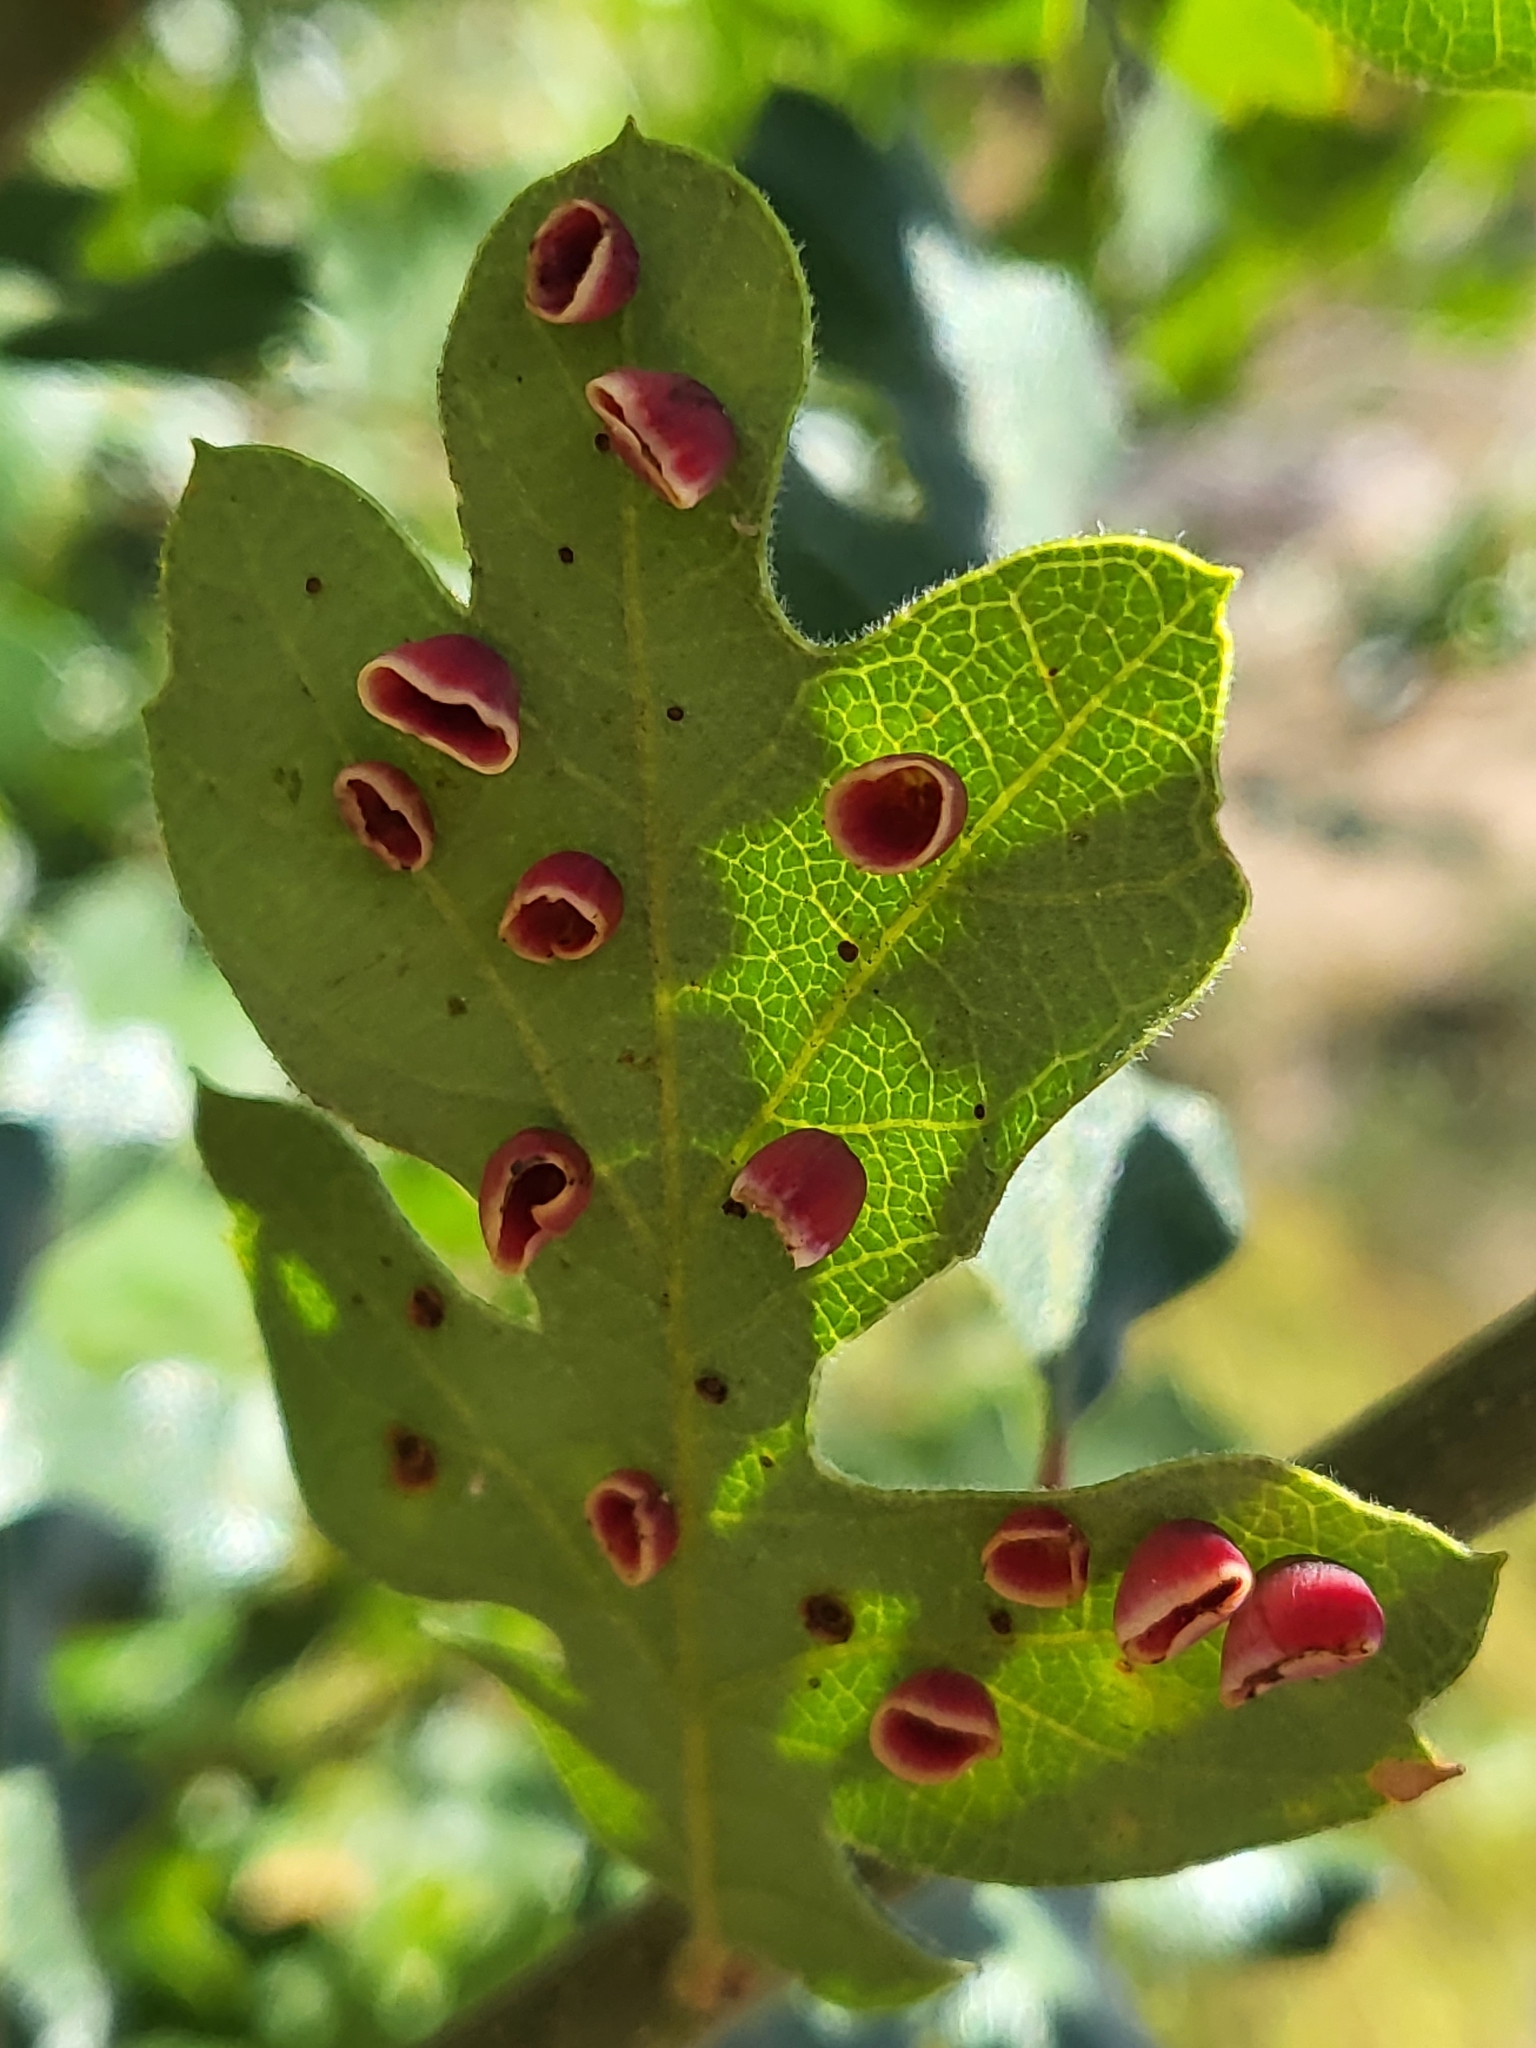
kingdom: Animalia
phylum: Arthropoda
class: Insecta
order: Hymenoptera
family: Cynipidae
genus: Andricus
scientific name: Andricus
